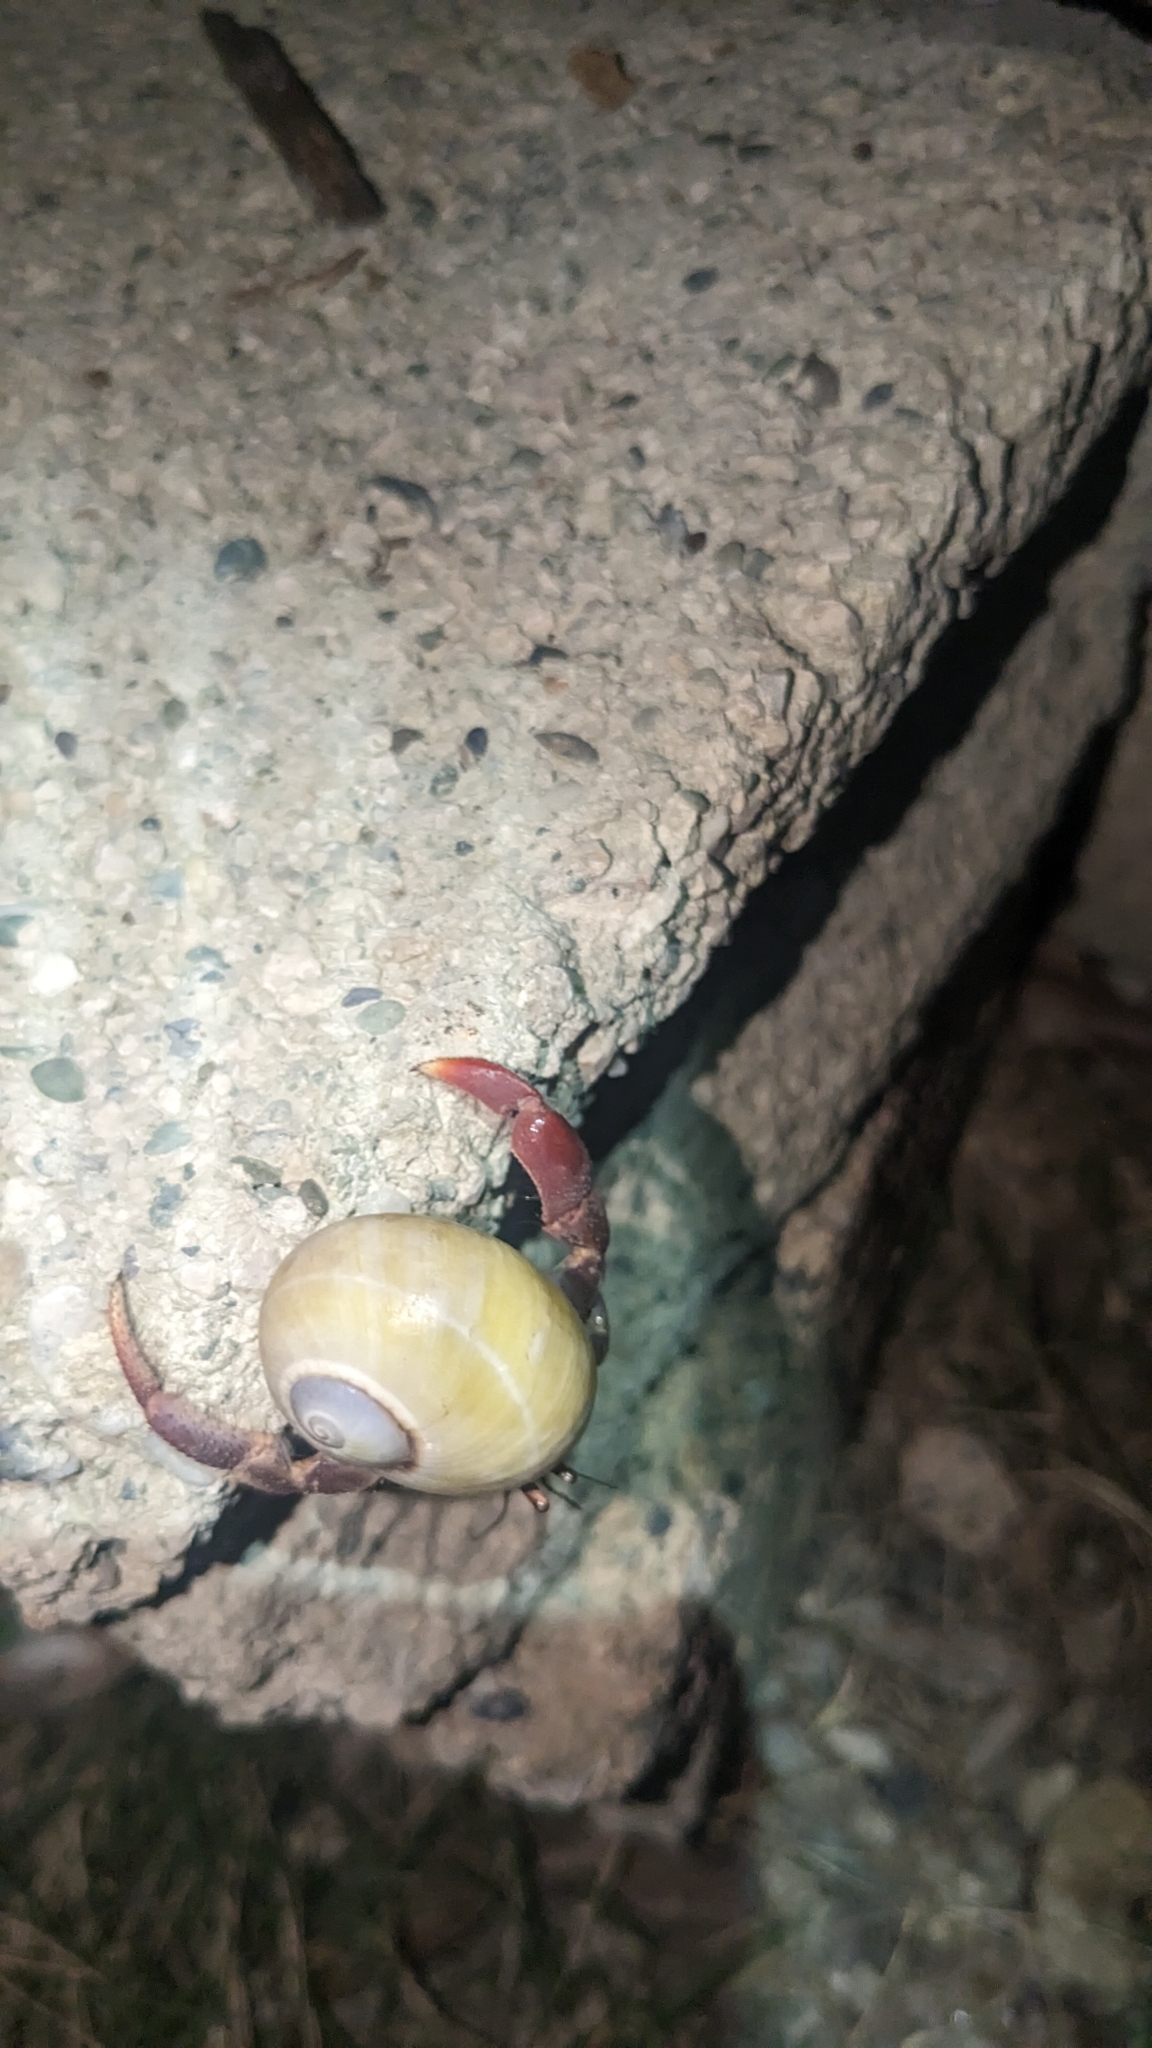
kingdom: Animalia
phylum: Arthropoda
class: Malacostraca
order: Decapoda
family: Coenobitidae
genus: Coenobita
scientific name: Coenobita clypeatus
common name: Caribbean hermit crab
